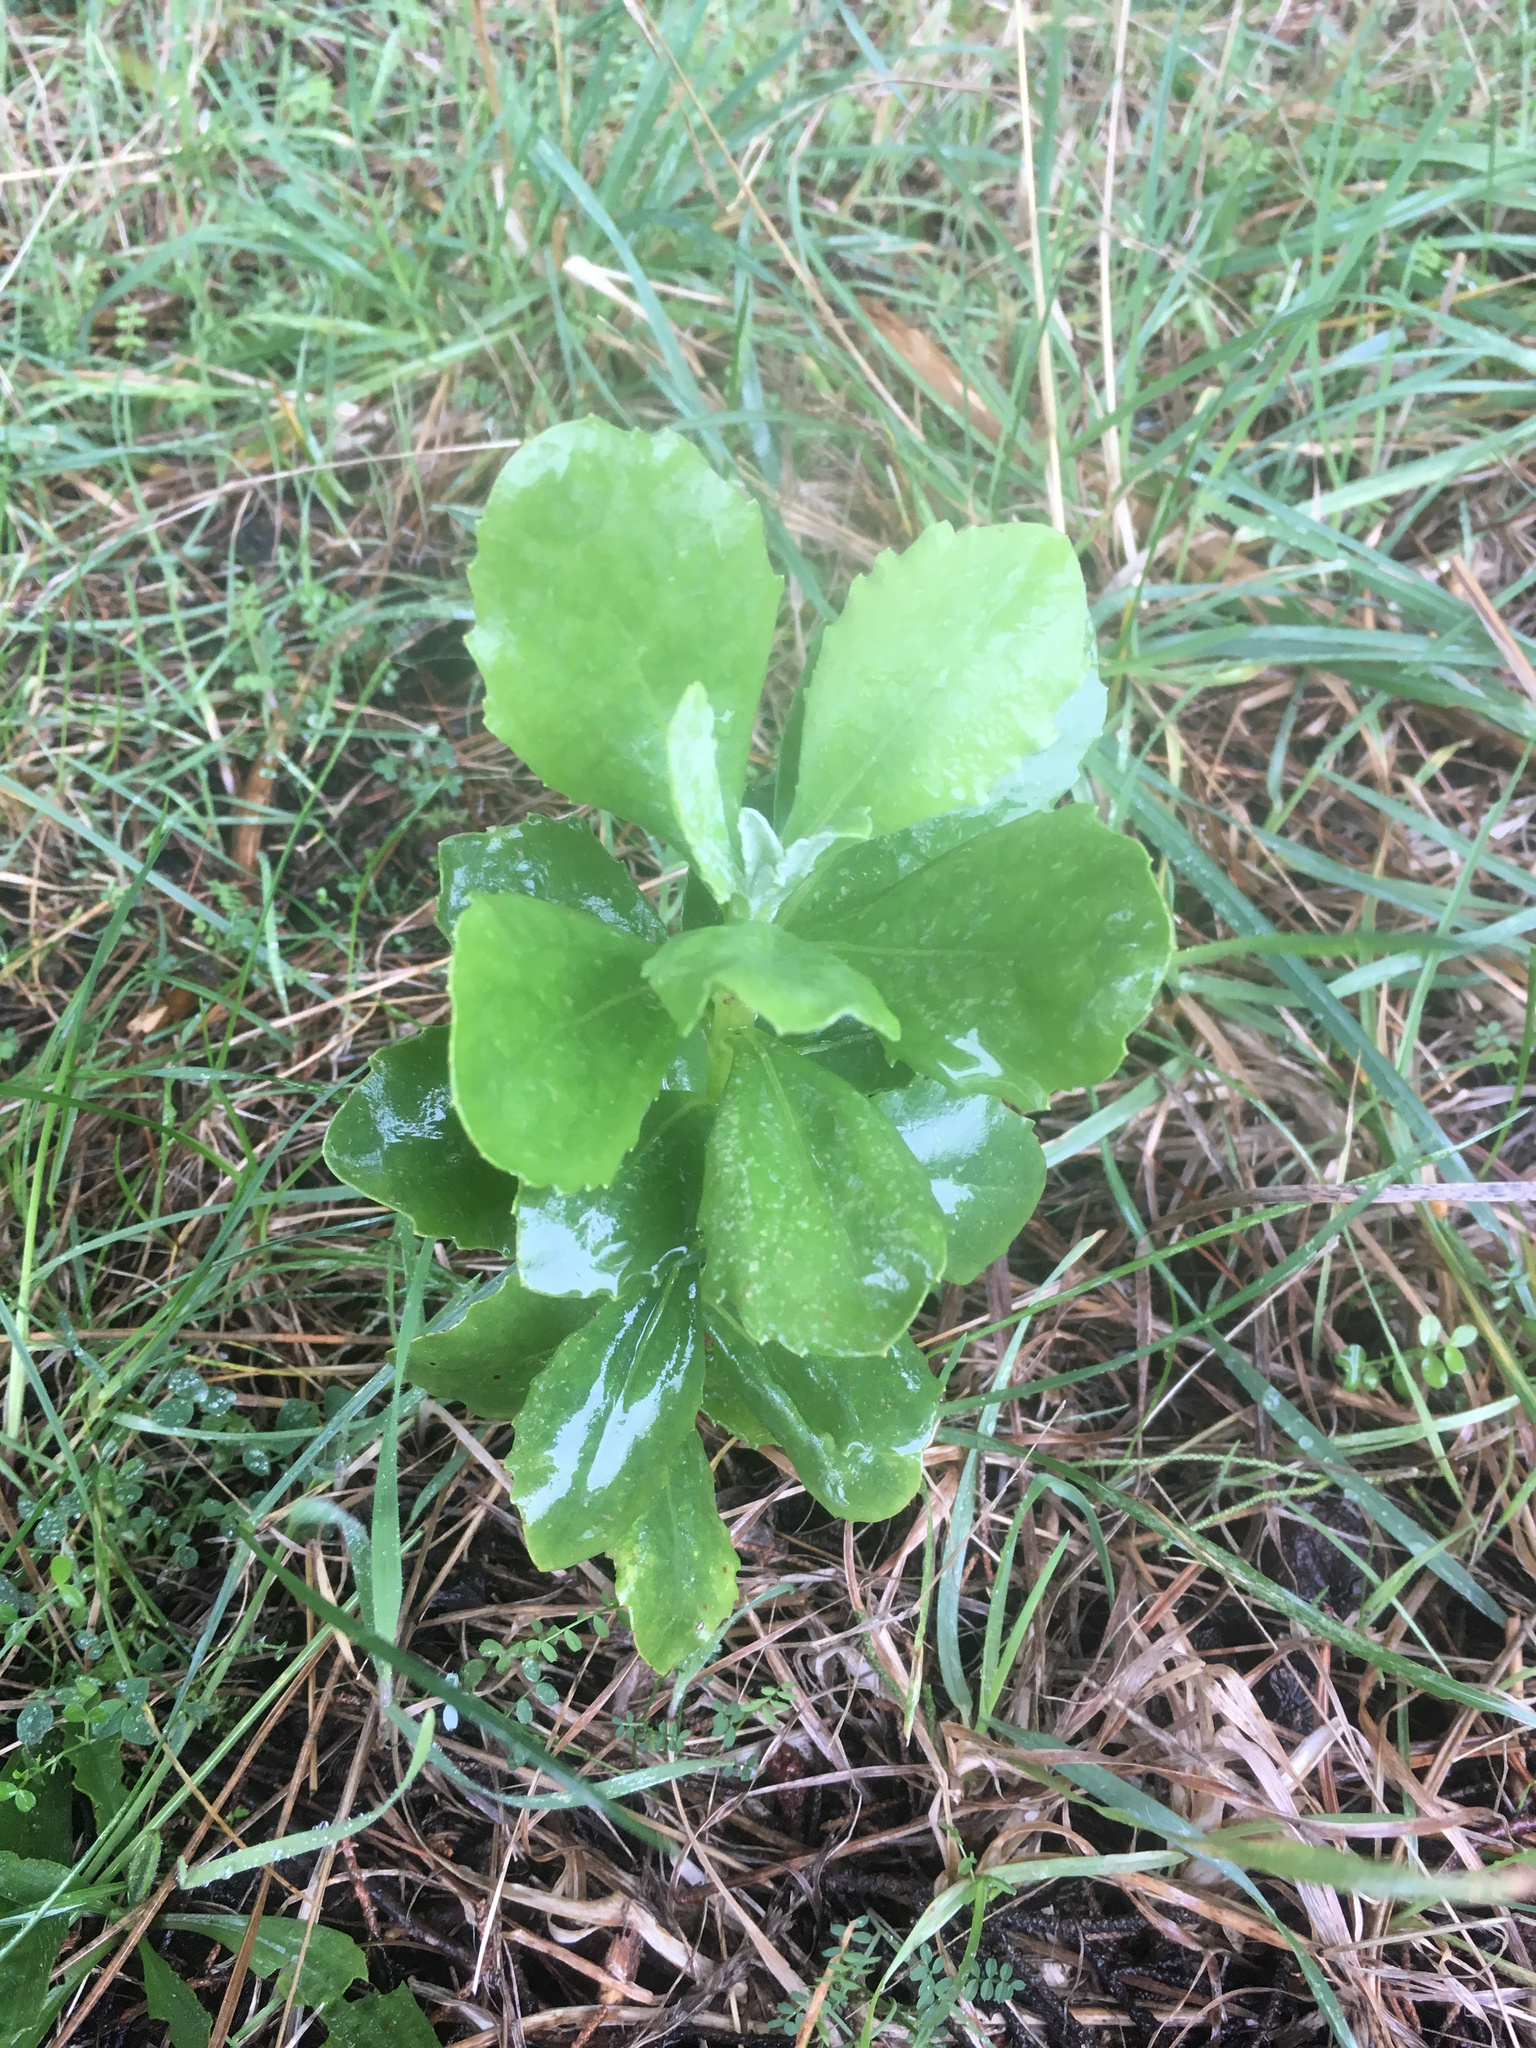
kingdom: Plantae
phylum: Tracheophyta
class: Magnoliopsida
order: Asterales
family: Asteraceae
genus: Osteospermum
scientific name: Osteospermum moniliferum
